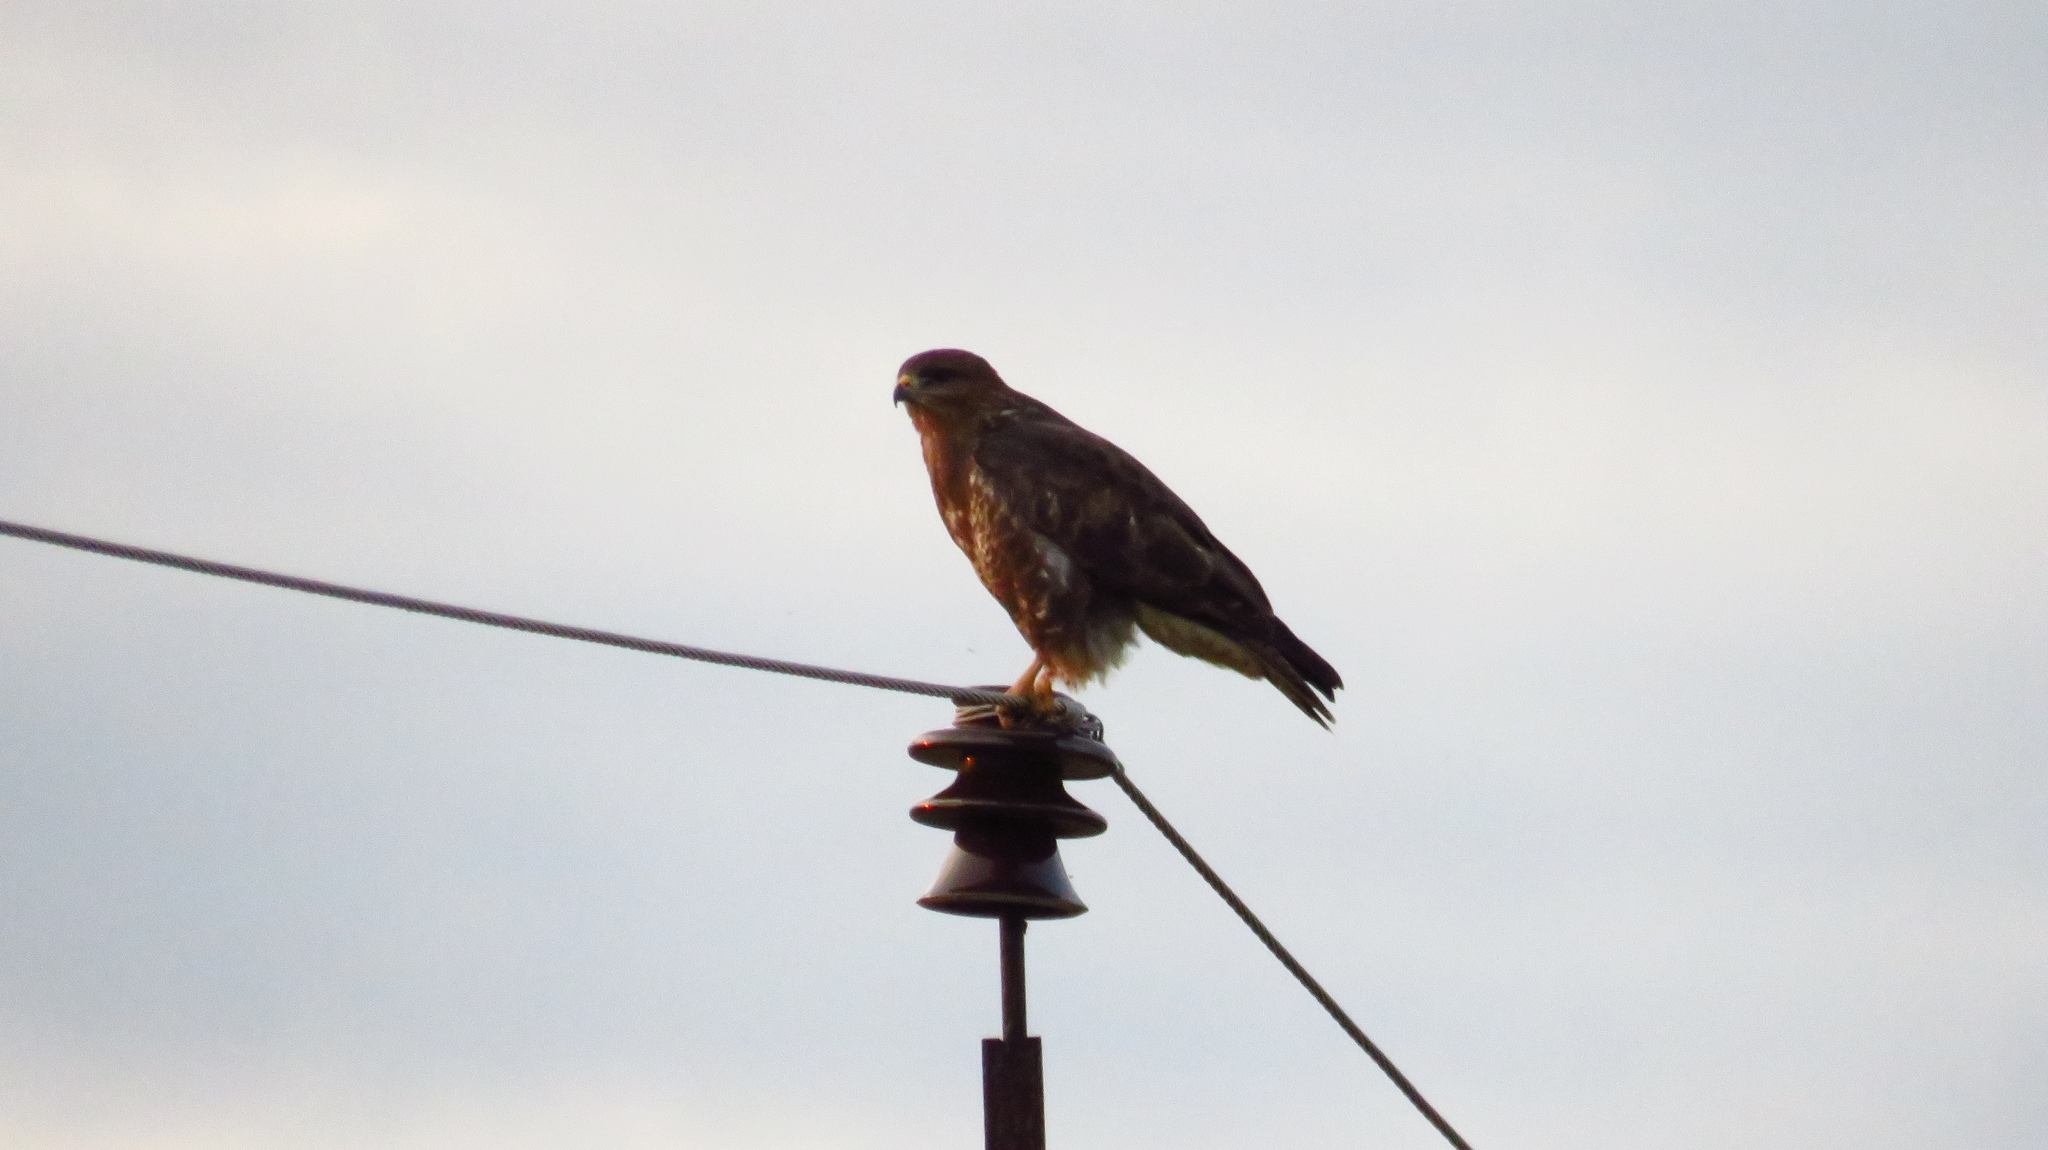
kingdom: Animalia
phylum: Chordata
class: Aves
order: Accipitriformes
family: Accipitridae
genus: Buteo
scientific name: Buteo buteo
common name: Common buzzard
